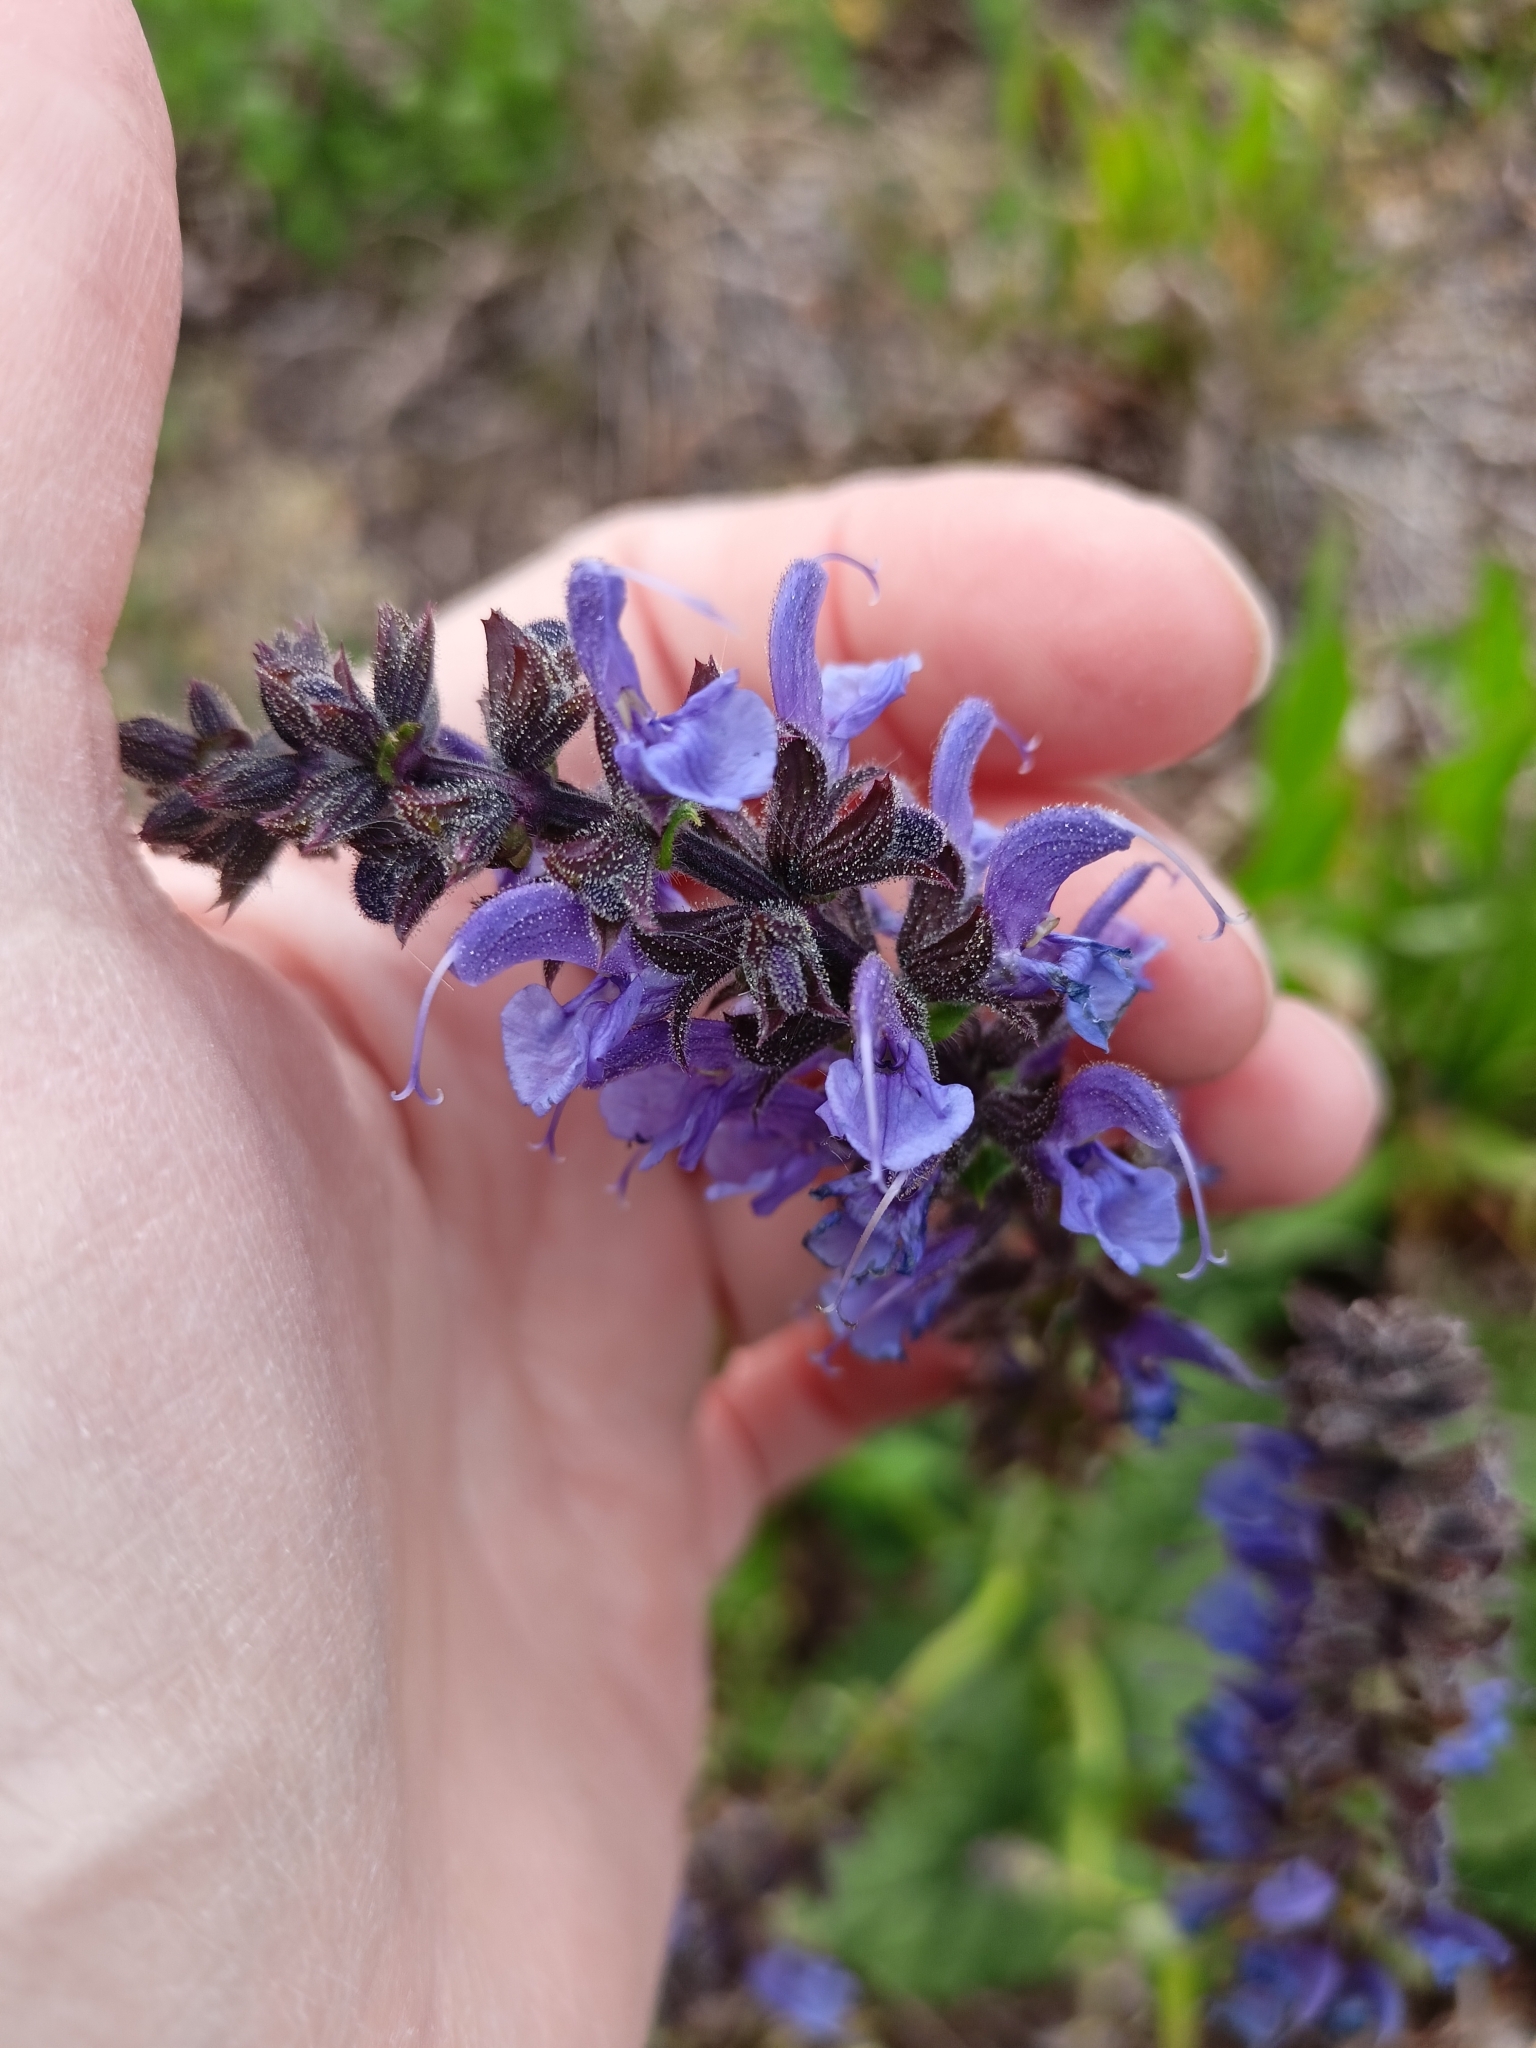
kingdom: Plantae
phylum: Tracheophyta
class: Magnoliopsida
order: Lamiales
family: Lamiaceae
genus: Salvia
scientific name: Salvia pratensis
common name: Meadow sage
